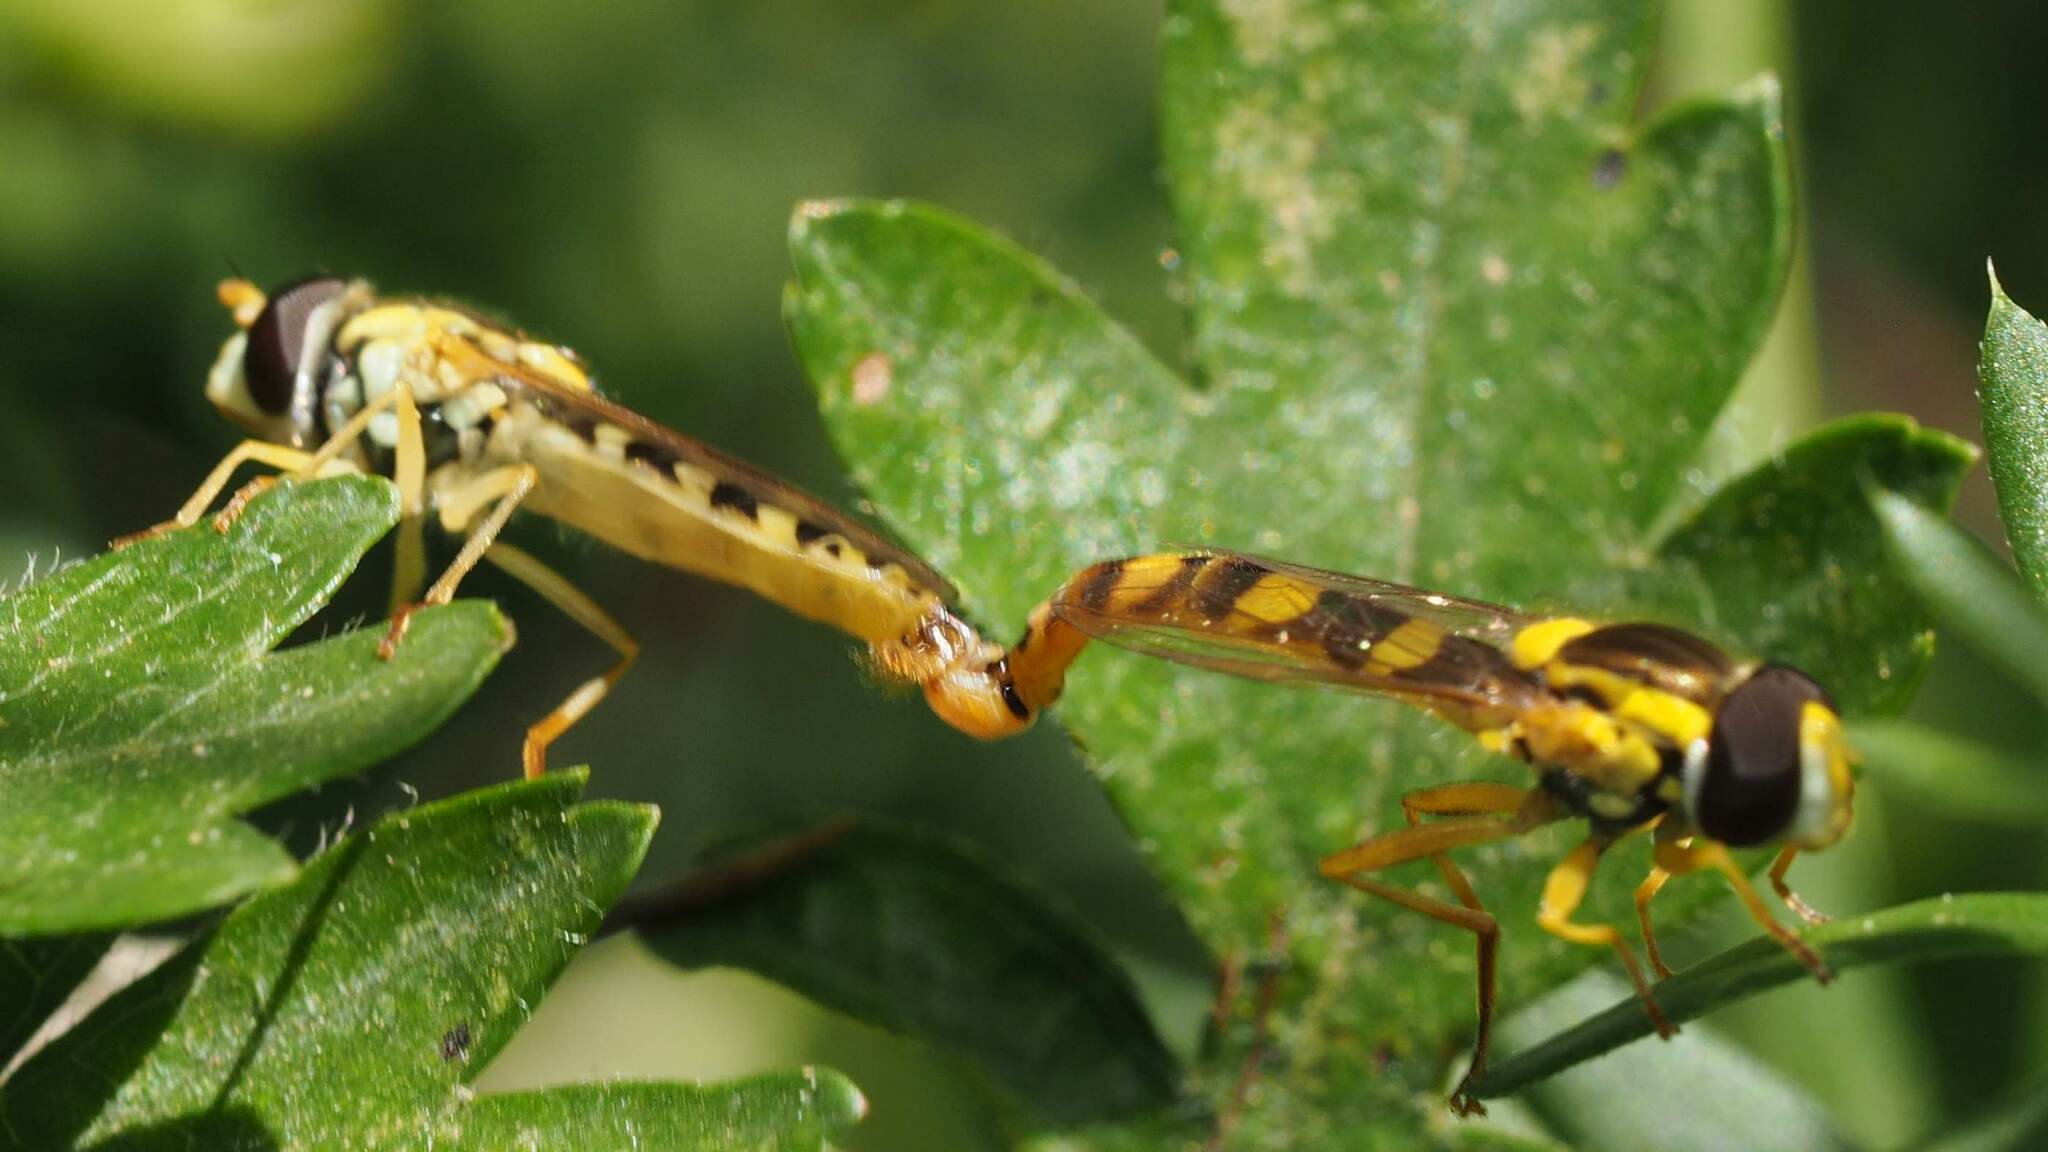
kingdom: Animalia
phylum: Arthropoda
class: Insecta
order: Diptera
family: Syrphidae
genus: Sphaerophoria
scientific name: Sphaerophoria scripta
